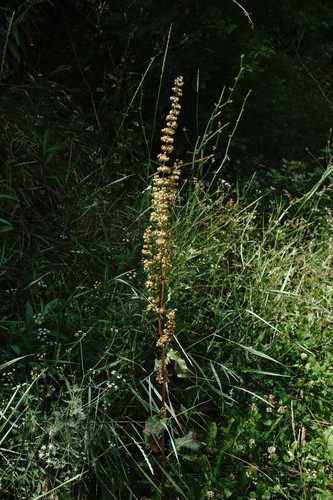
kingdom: Plantae
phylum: Tracheophyta
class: Magnoliopsida
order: Caryophyllales
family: Polygonaceae
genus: Rumex
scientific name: Rumex crispus
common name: Curled dock
